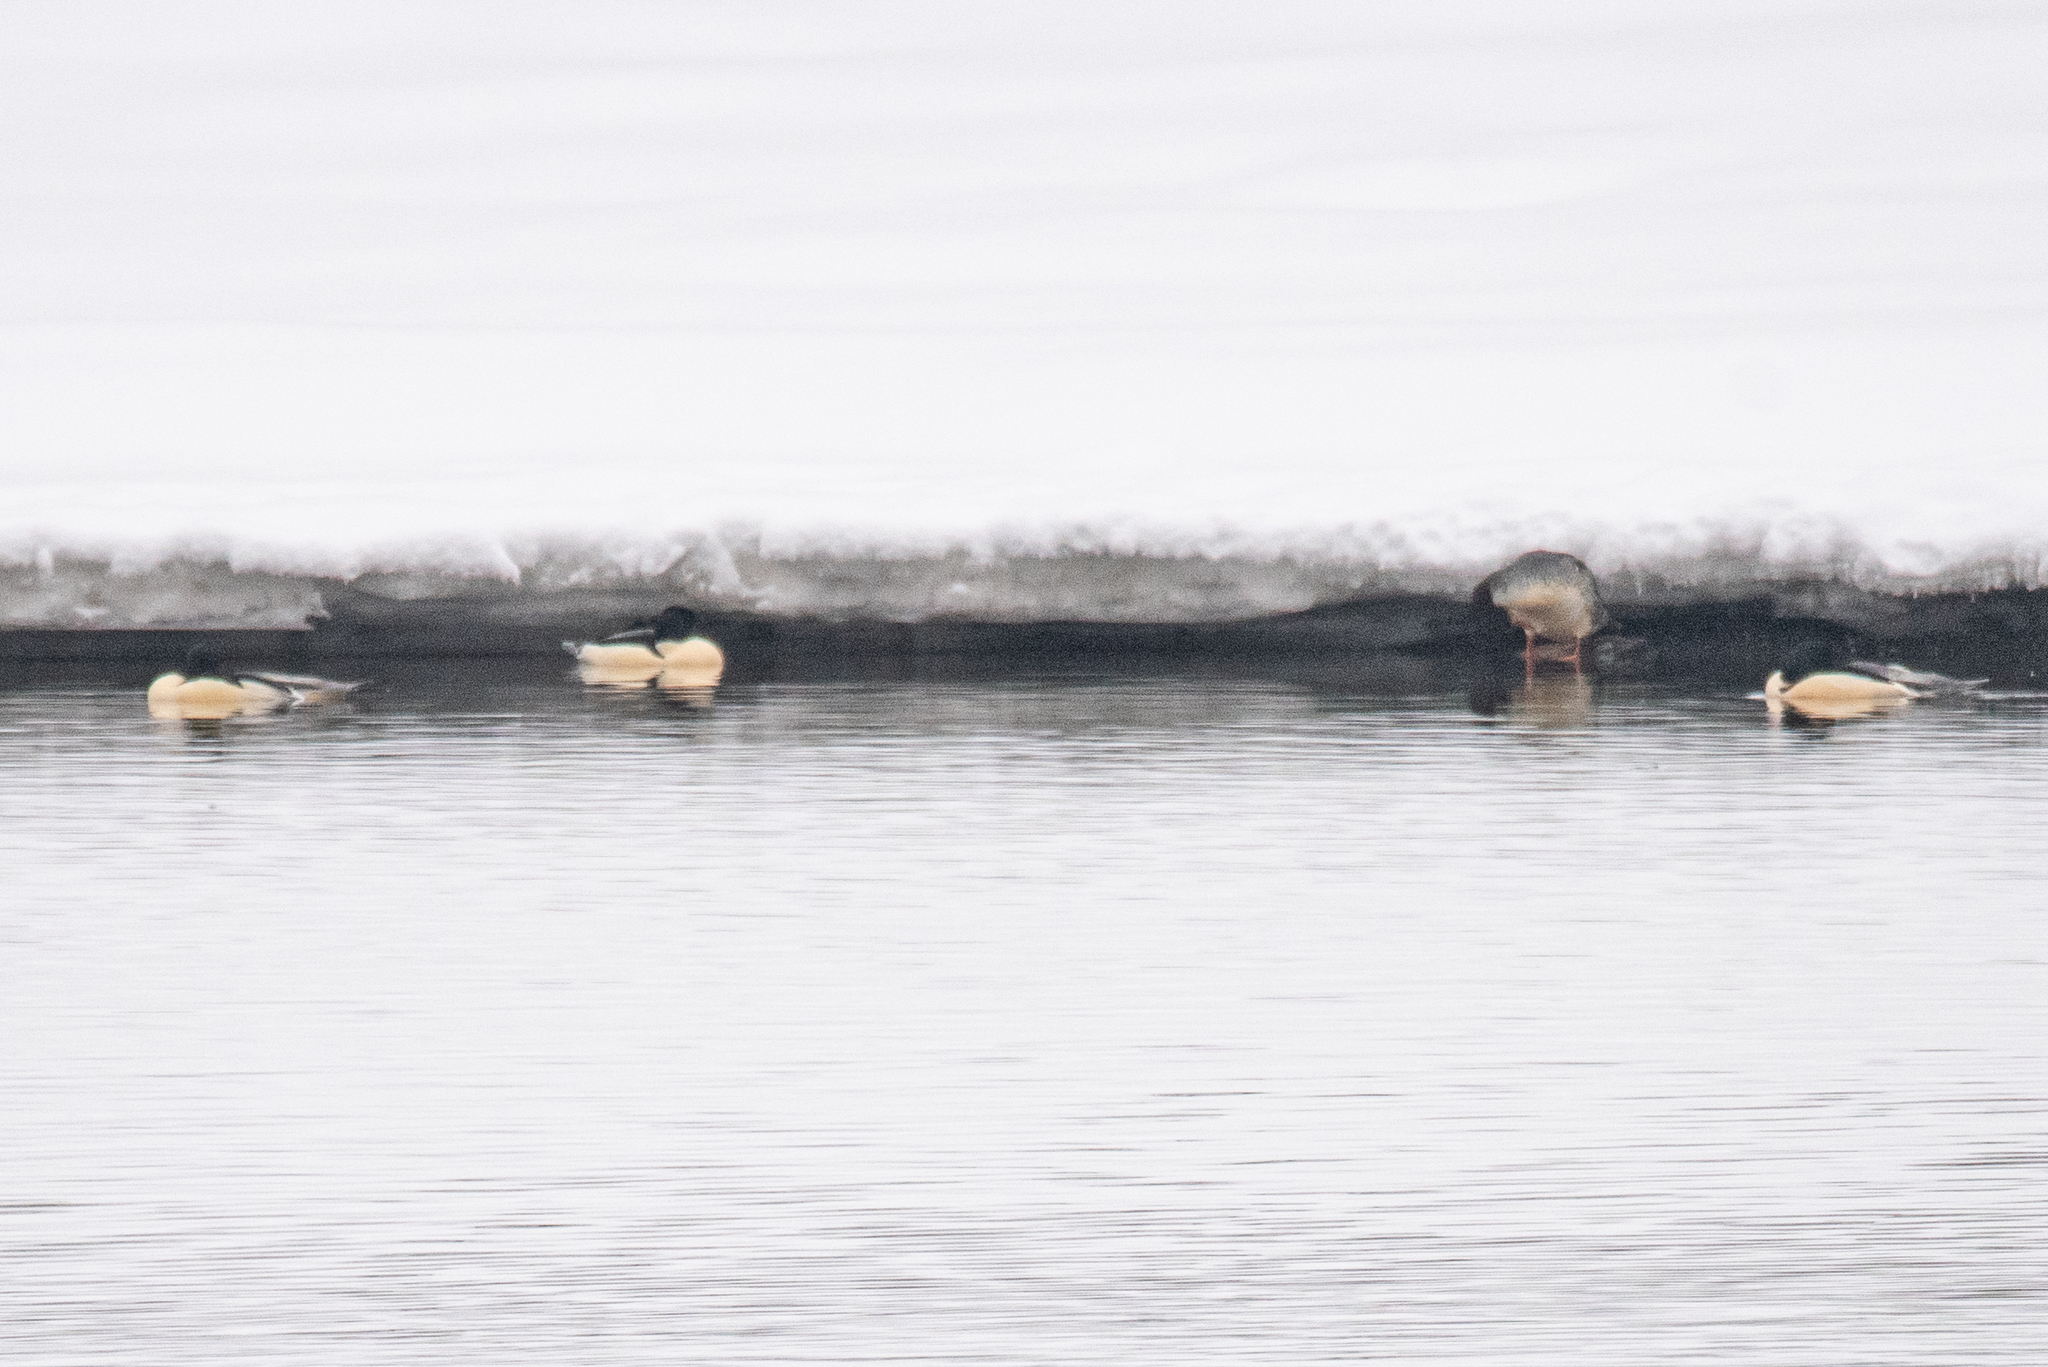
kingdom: Animalia
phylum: Chordata
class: Aves
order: Anseriformes
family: Anatidae
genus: Mergus
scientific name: Mergus merganser
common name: Common merganser
